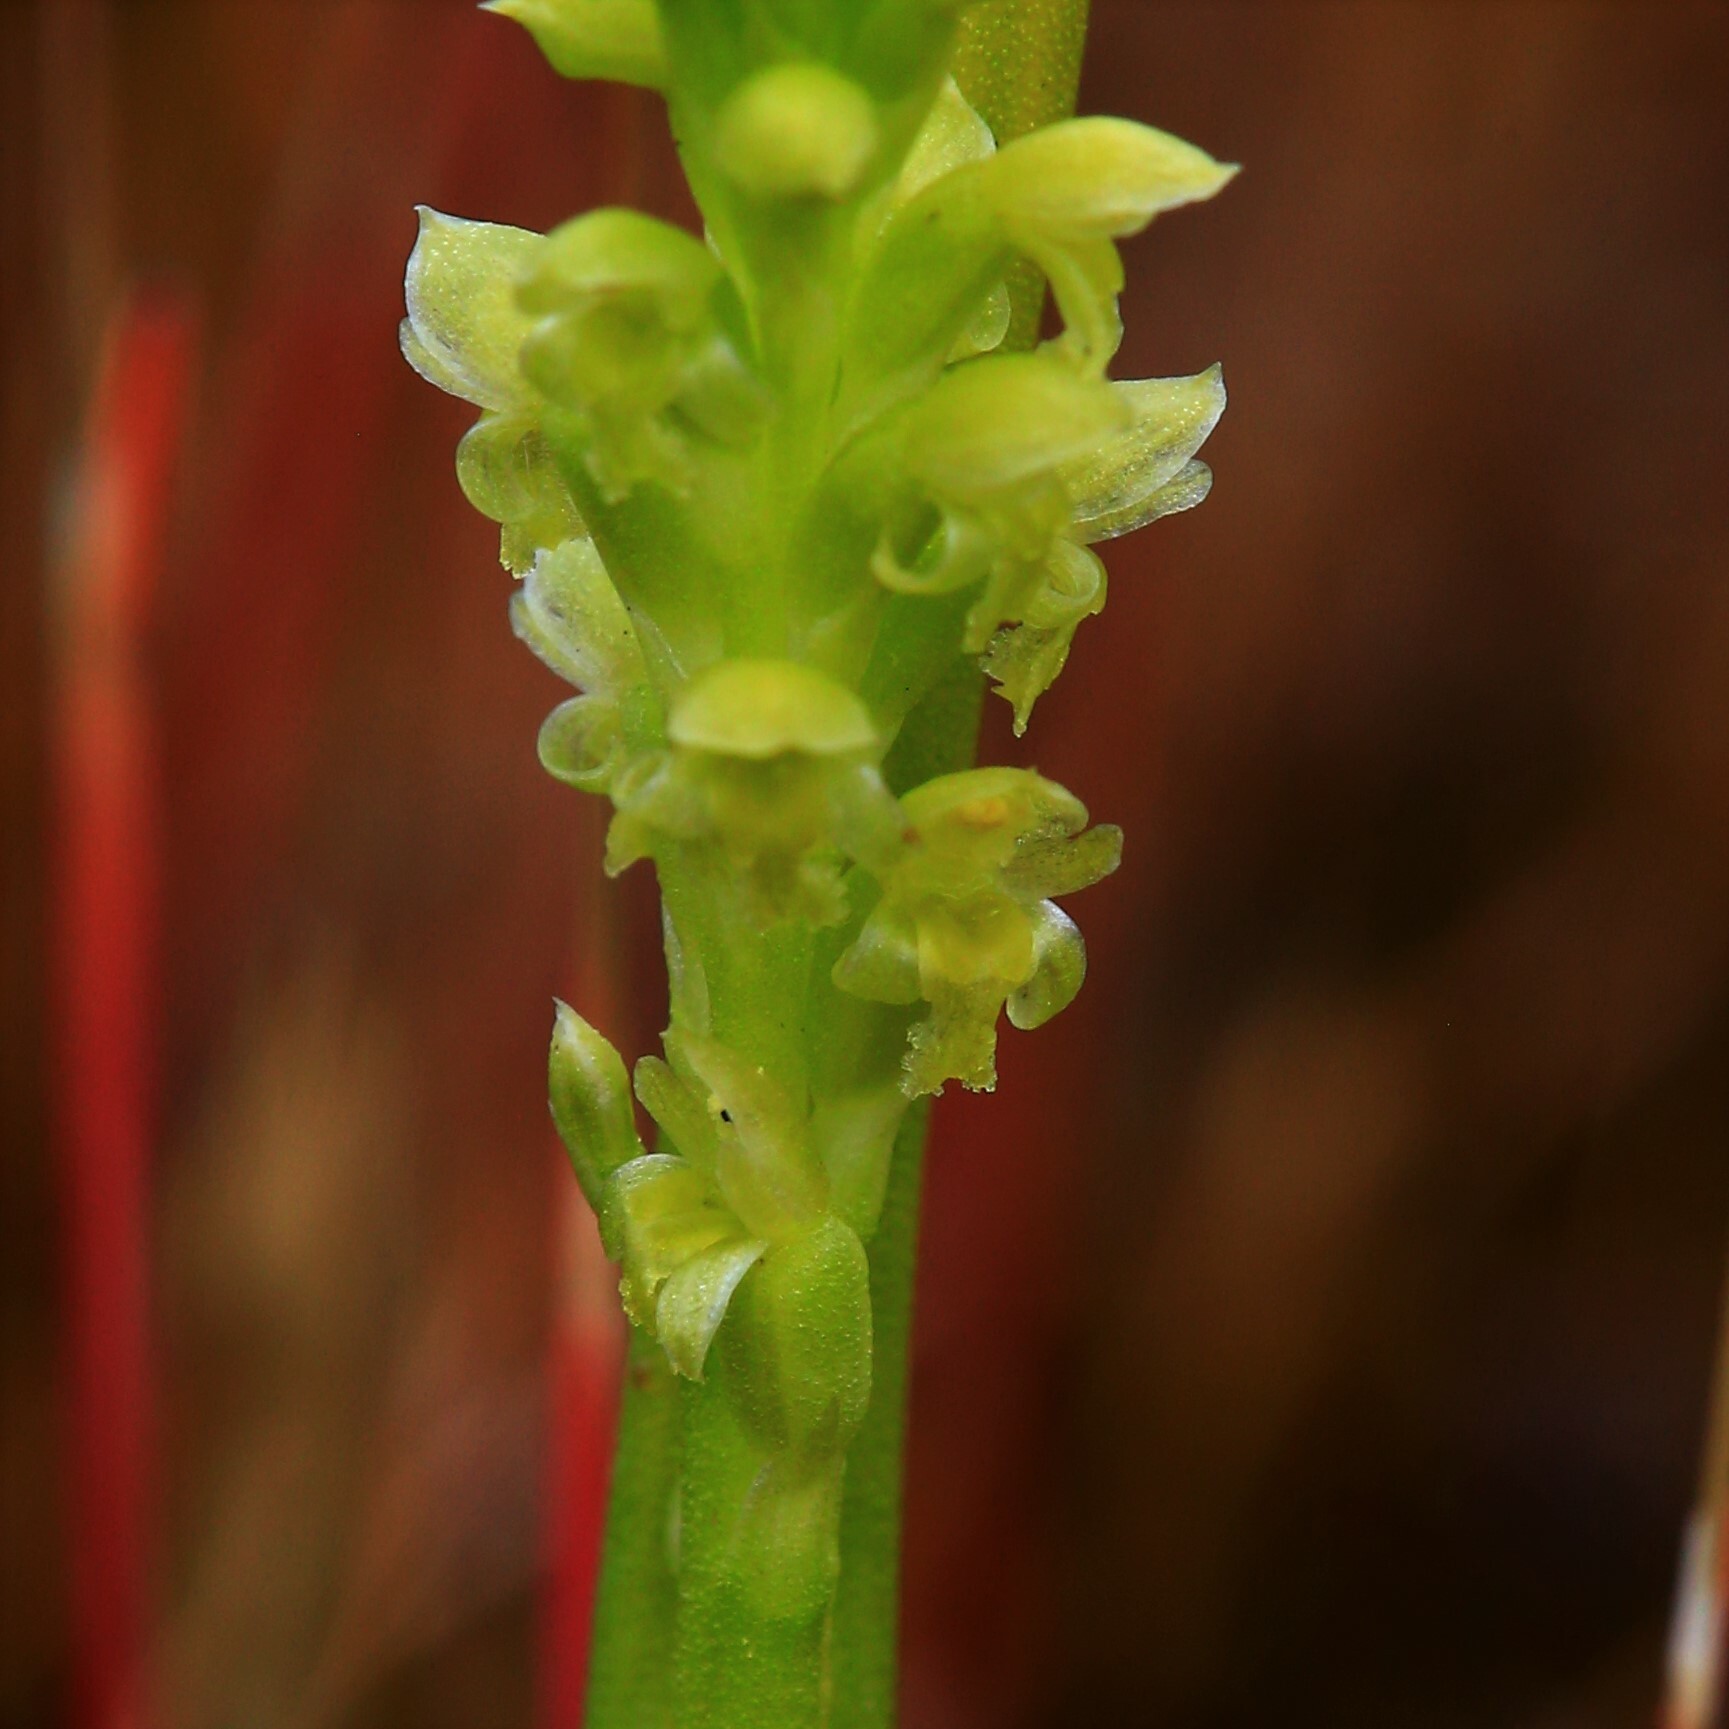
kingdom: Plantae
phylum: Tracheophyta
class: Liliopsida
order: Asparagales
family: Orchidaceae
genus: Microtis
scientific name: Microtis media
